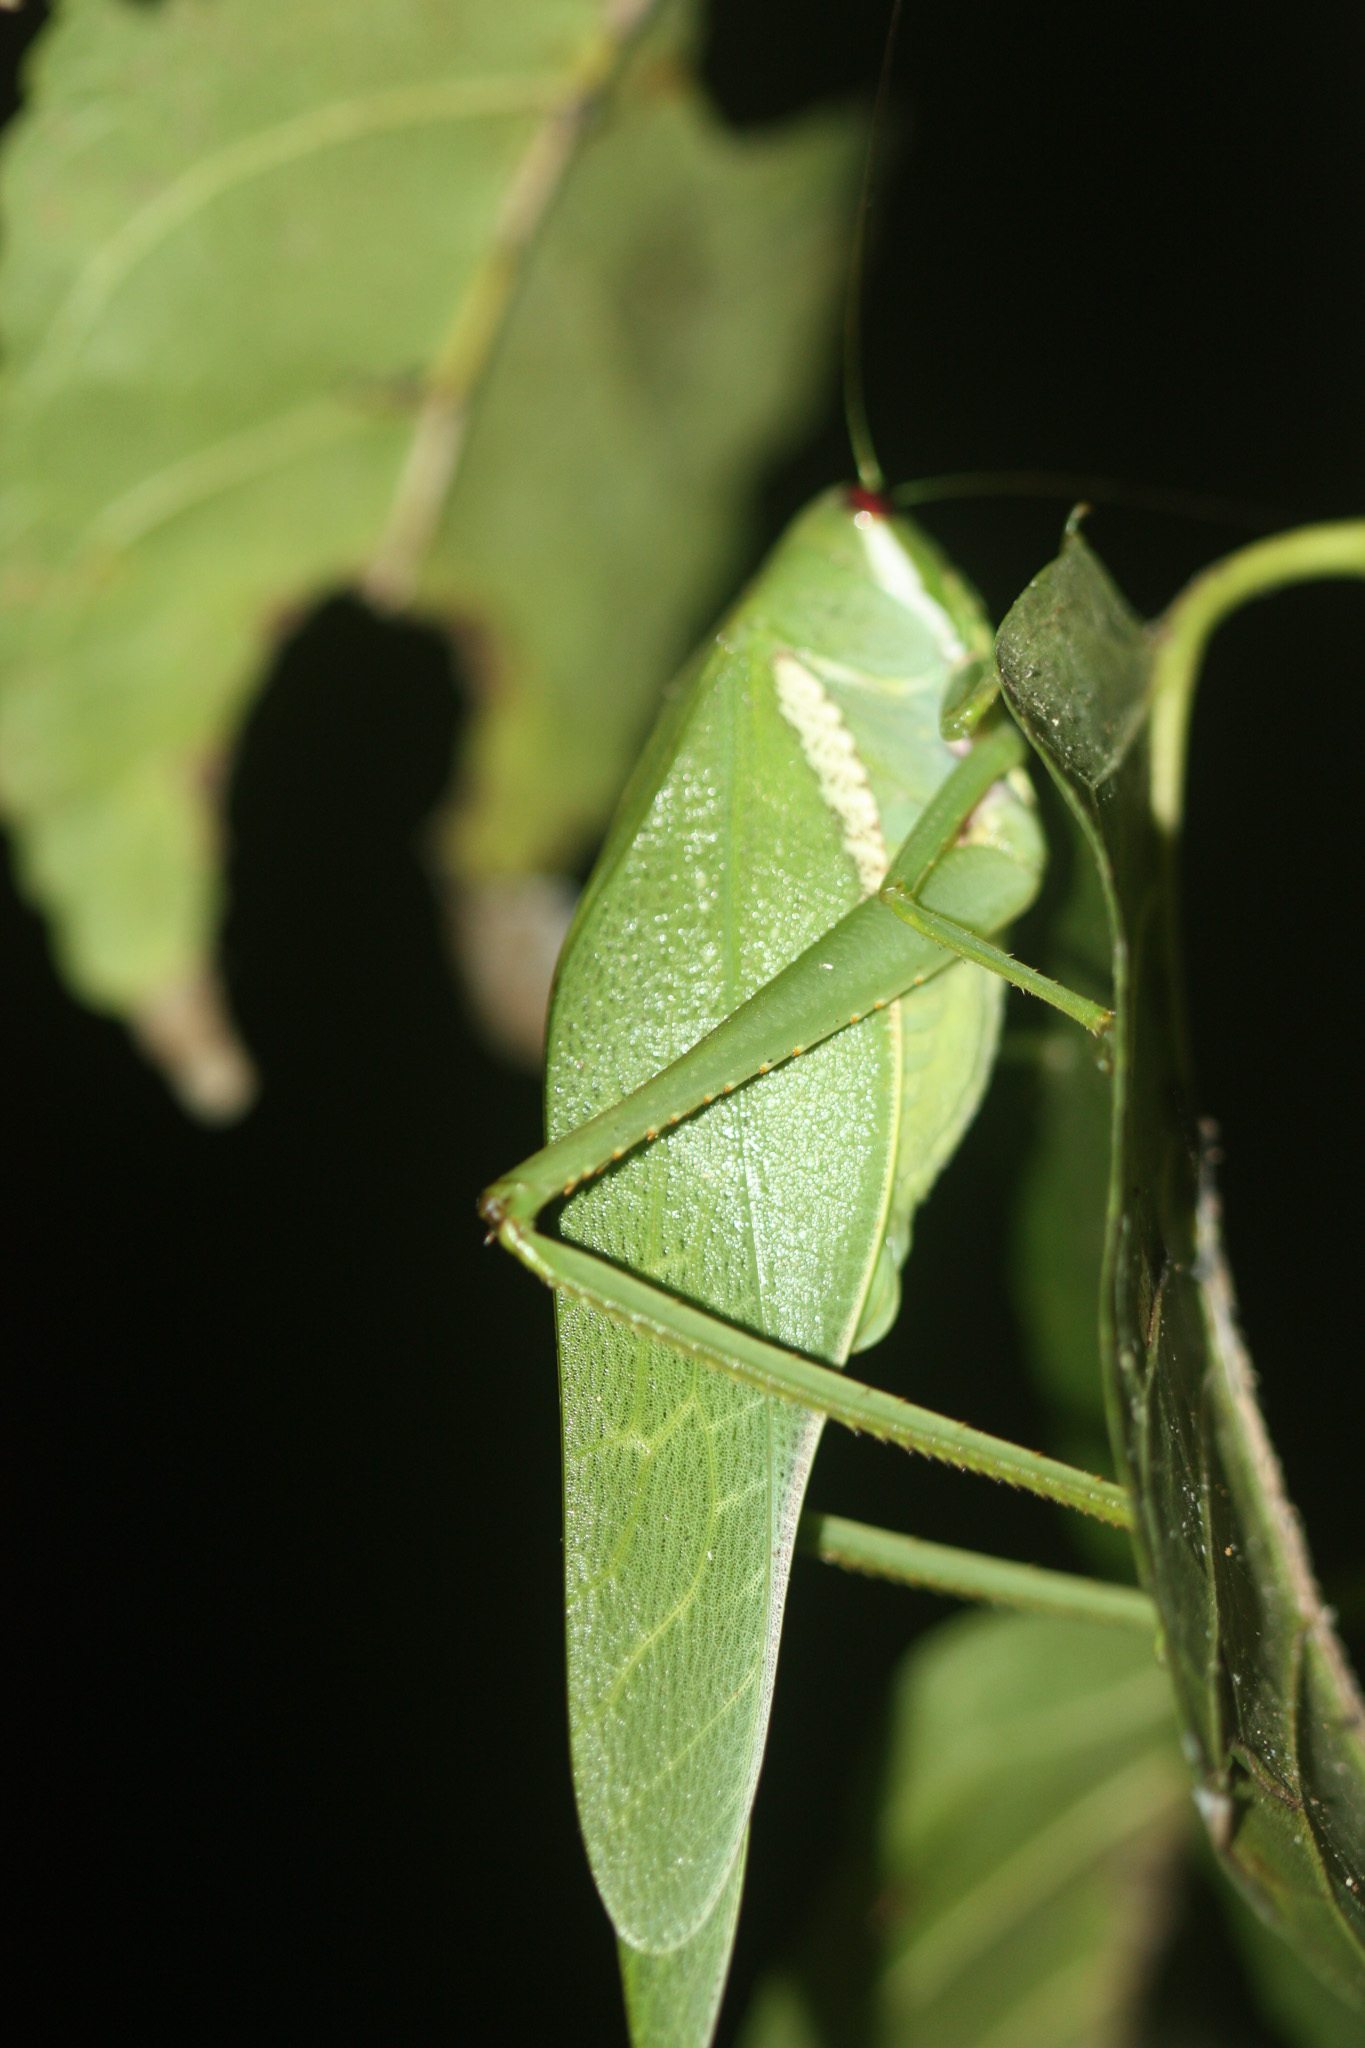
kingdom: Animalia
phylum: Arthropoda
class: Insecta
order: Orthoptera
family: Tettigoniidae
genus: Philophyllia
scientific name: Philophyllia guttulata
